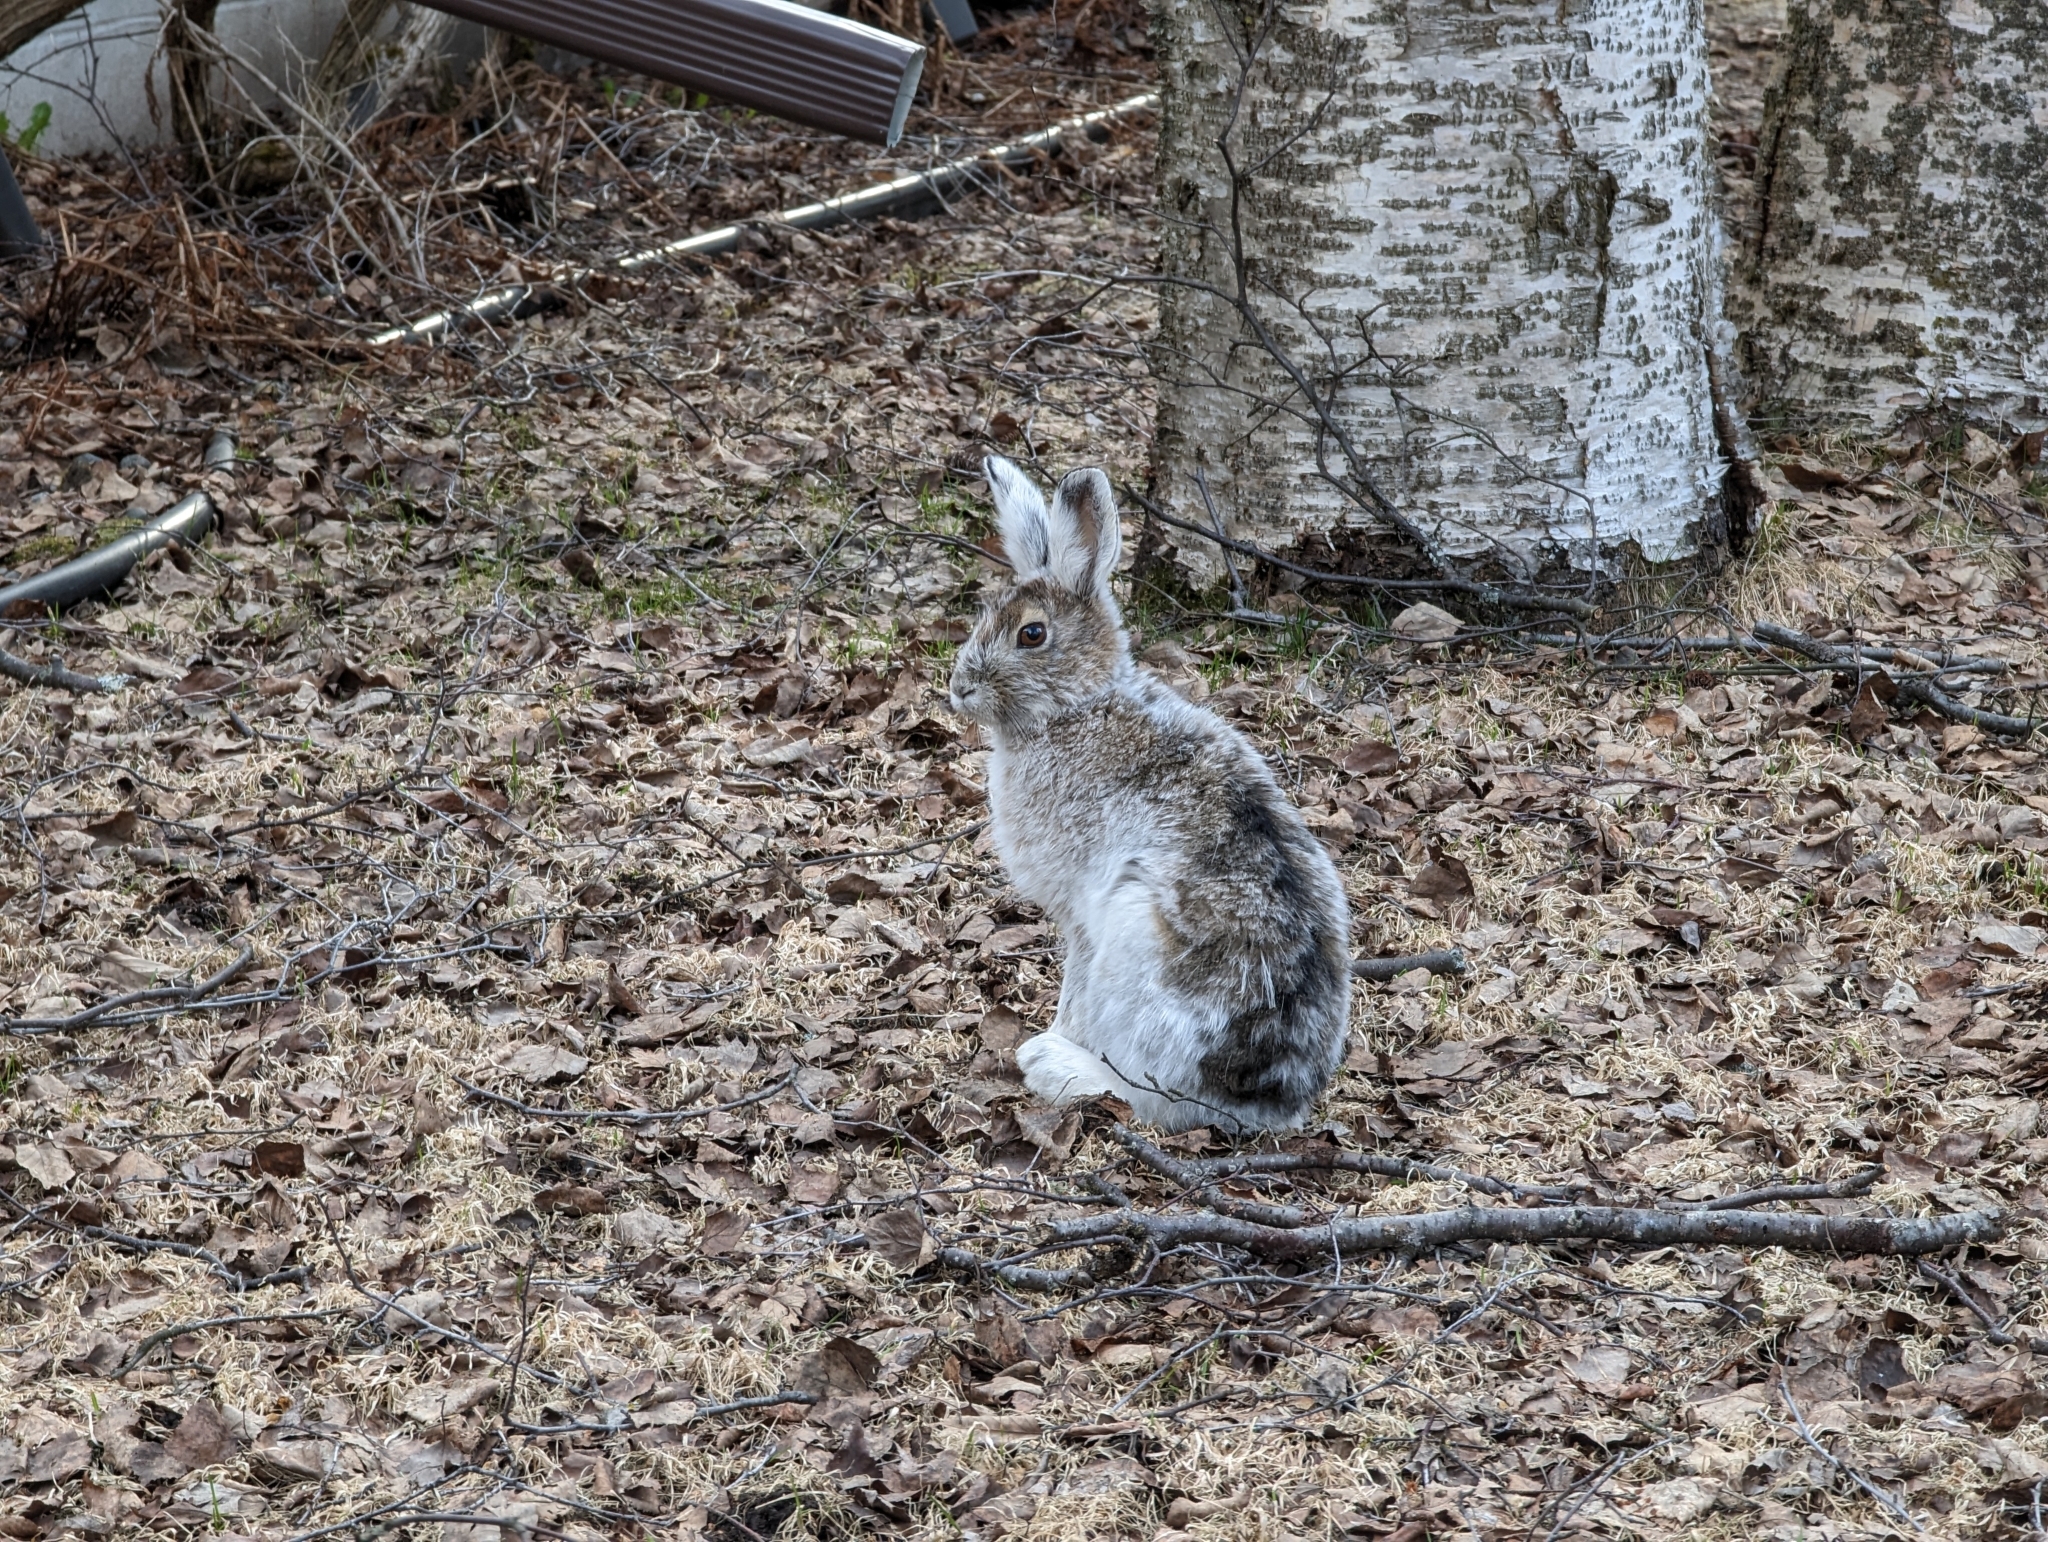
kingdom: Animalia
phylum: Chordata
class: Mammalia
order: Lagomorpha
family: Leporidae
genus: Lepus
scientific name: Lepus americanus
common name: Snowshoe hare
